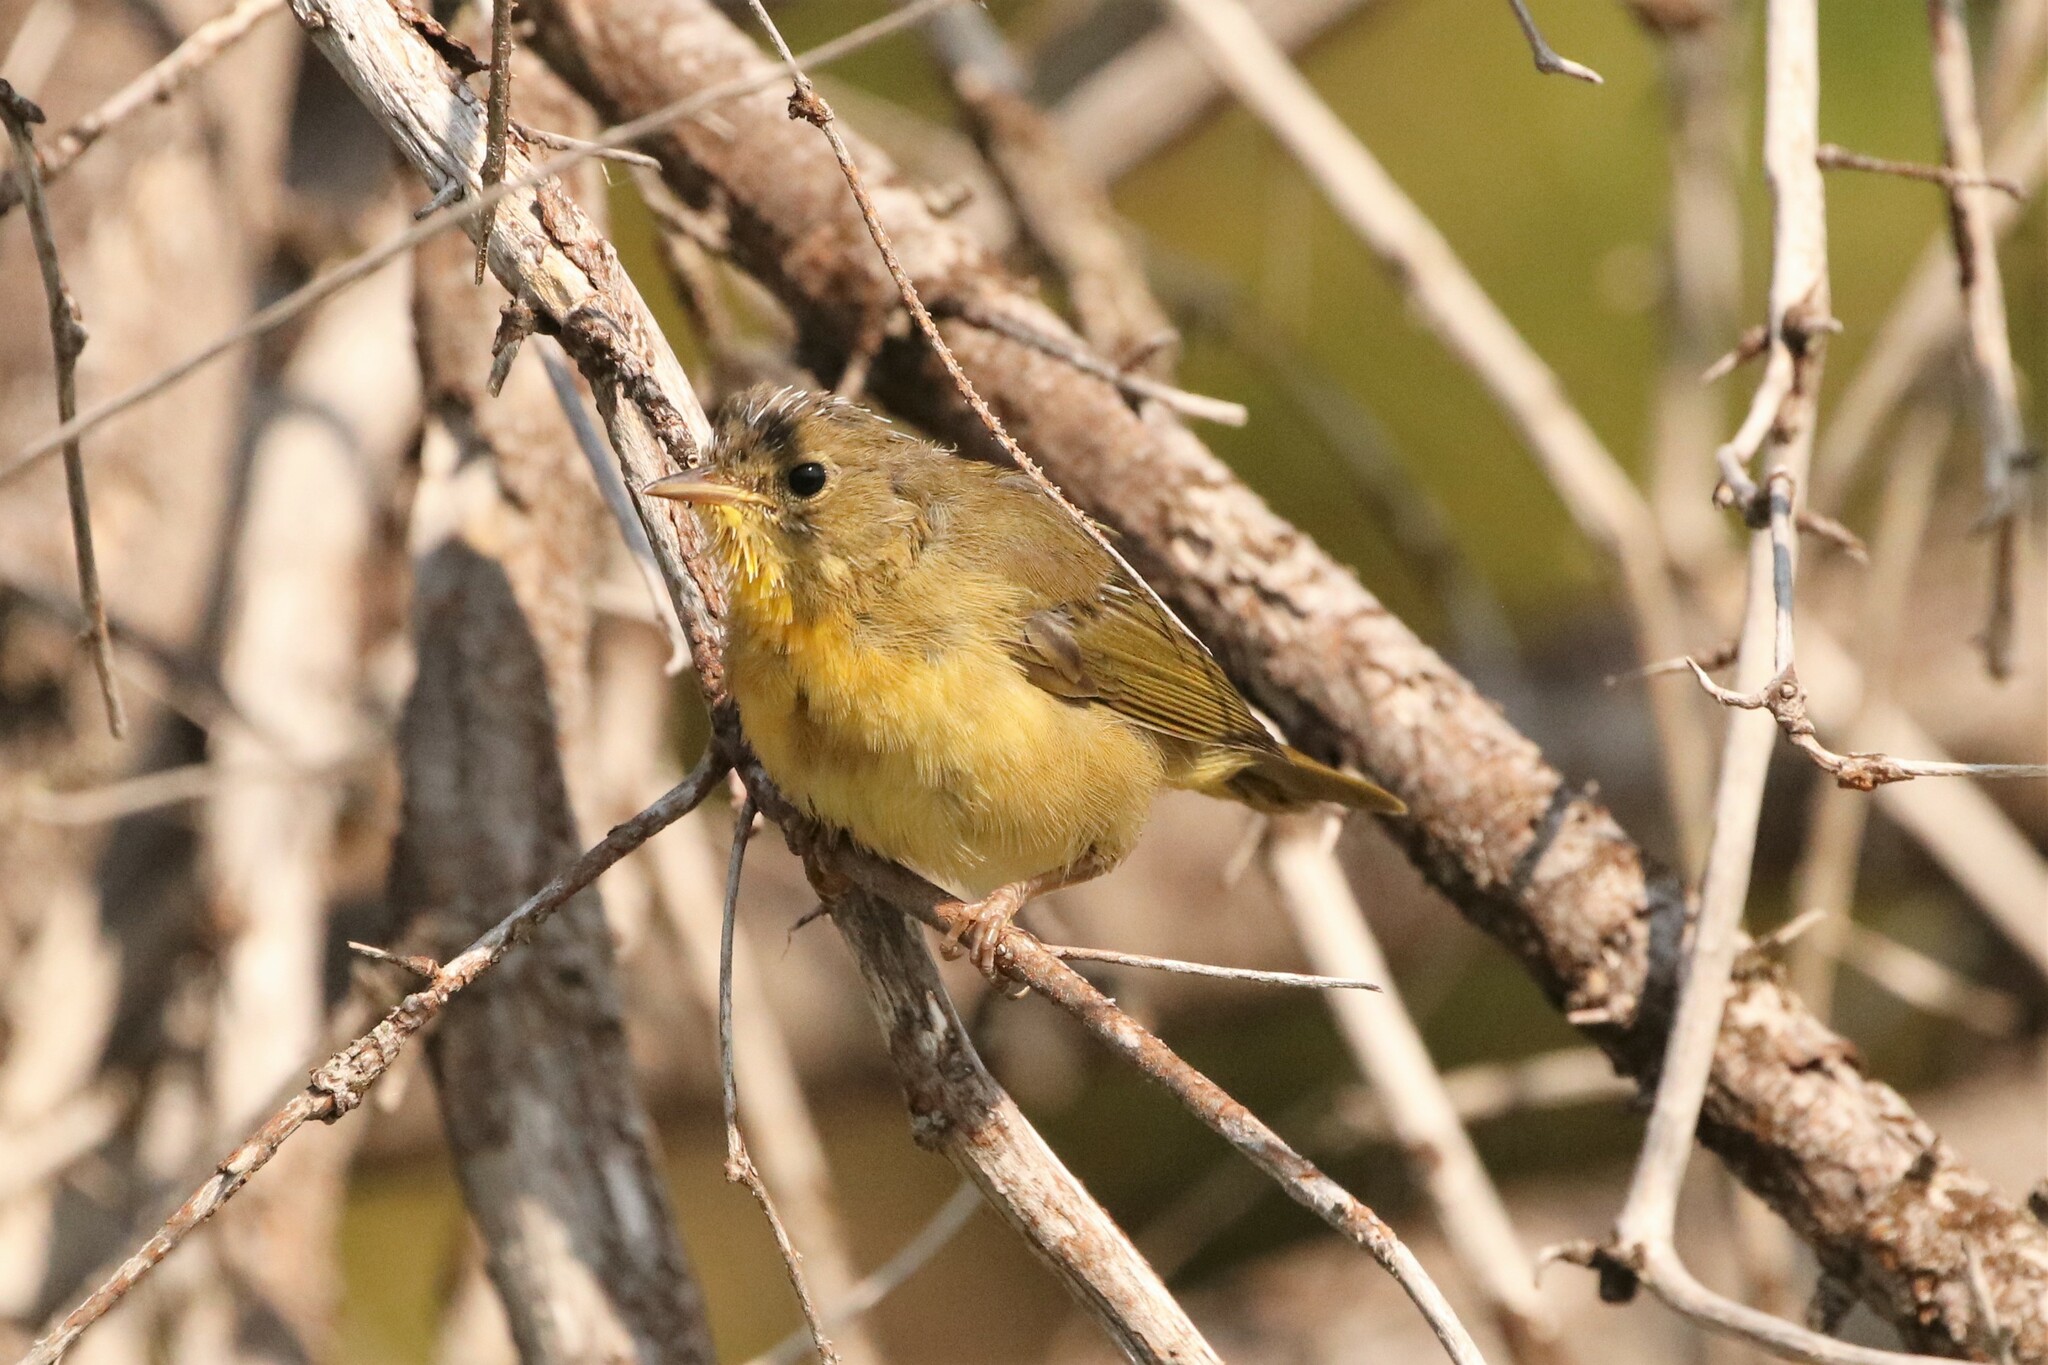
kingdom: Animalia
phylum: Chordata
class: Aves
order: Passeriformes
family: Parulidae
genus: Geothlypis
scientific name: Geothlypis trichas
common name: Common yellowthroat
